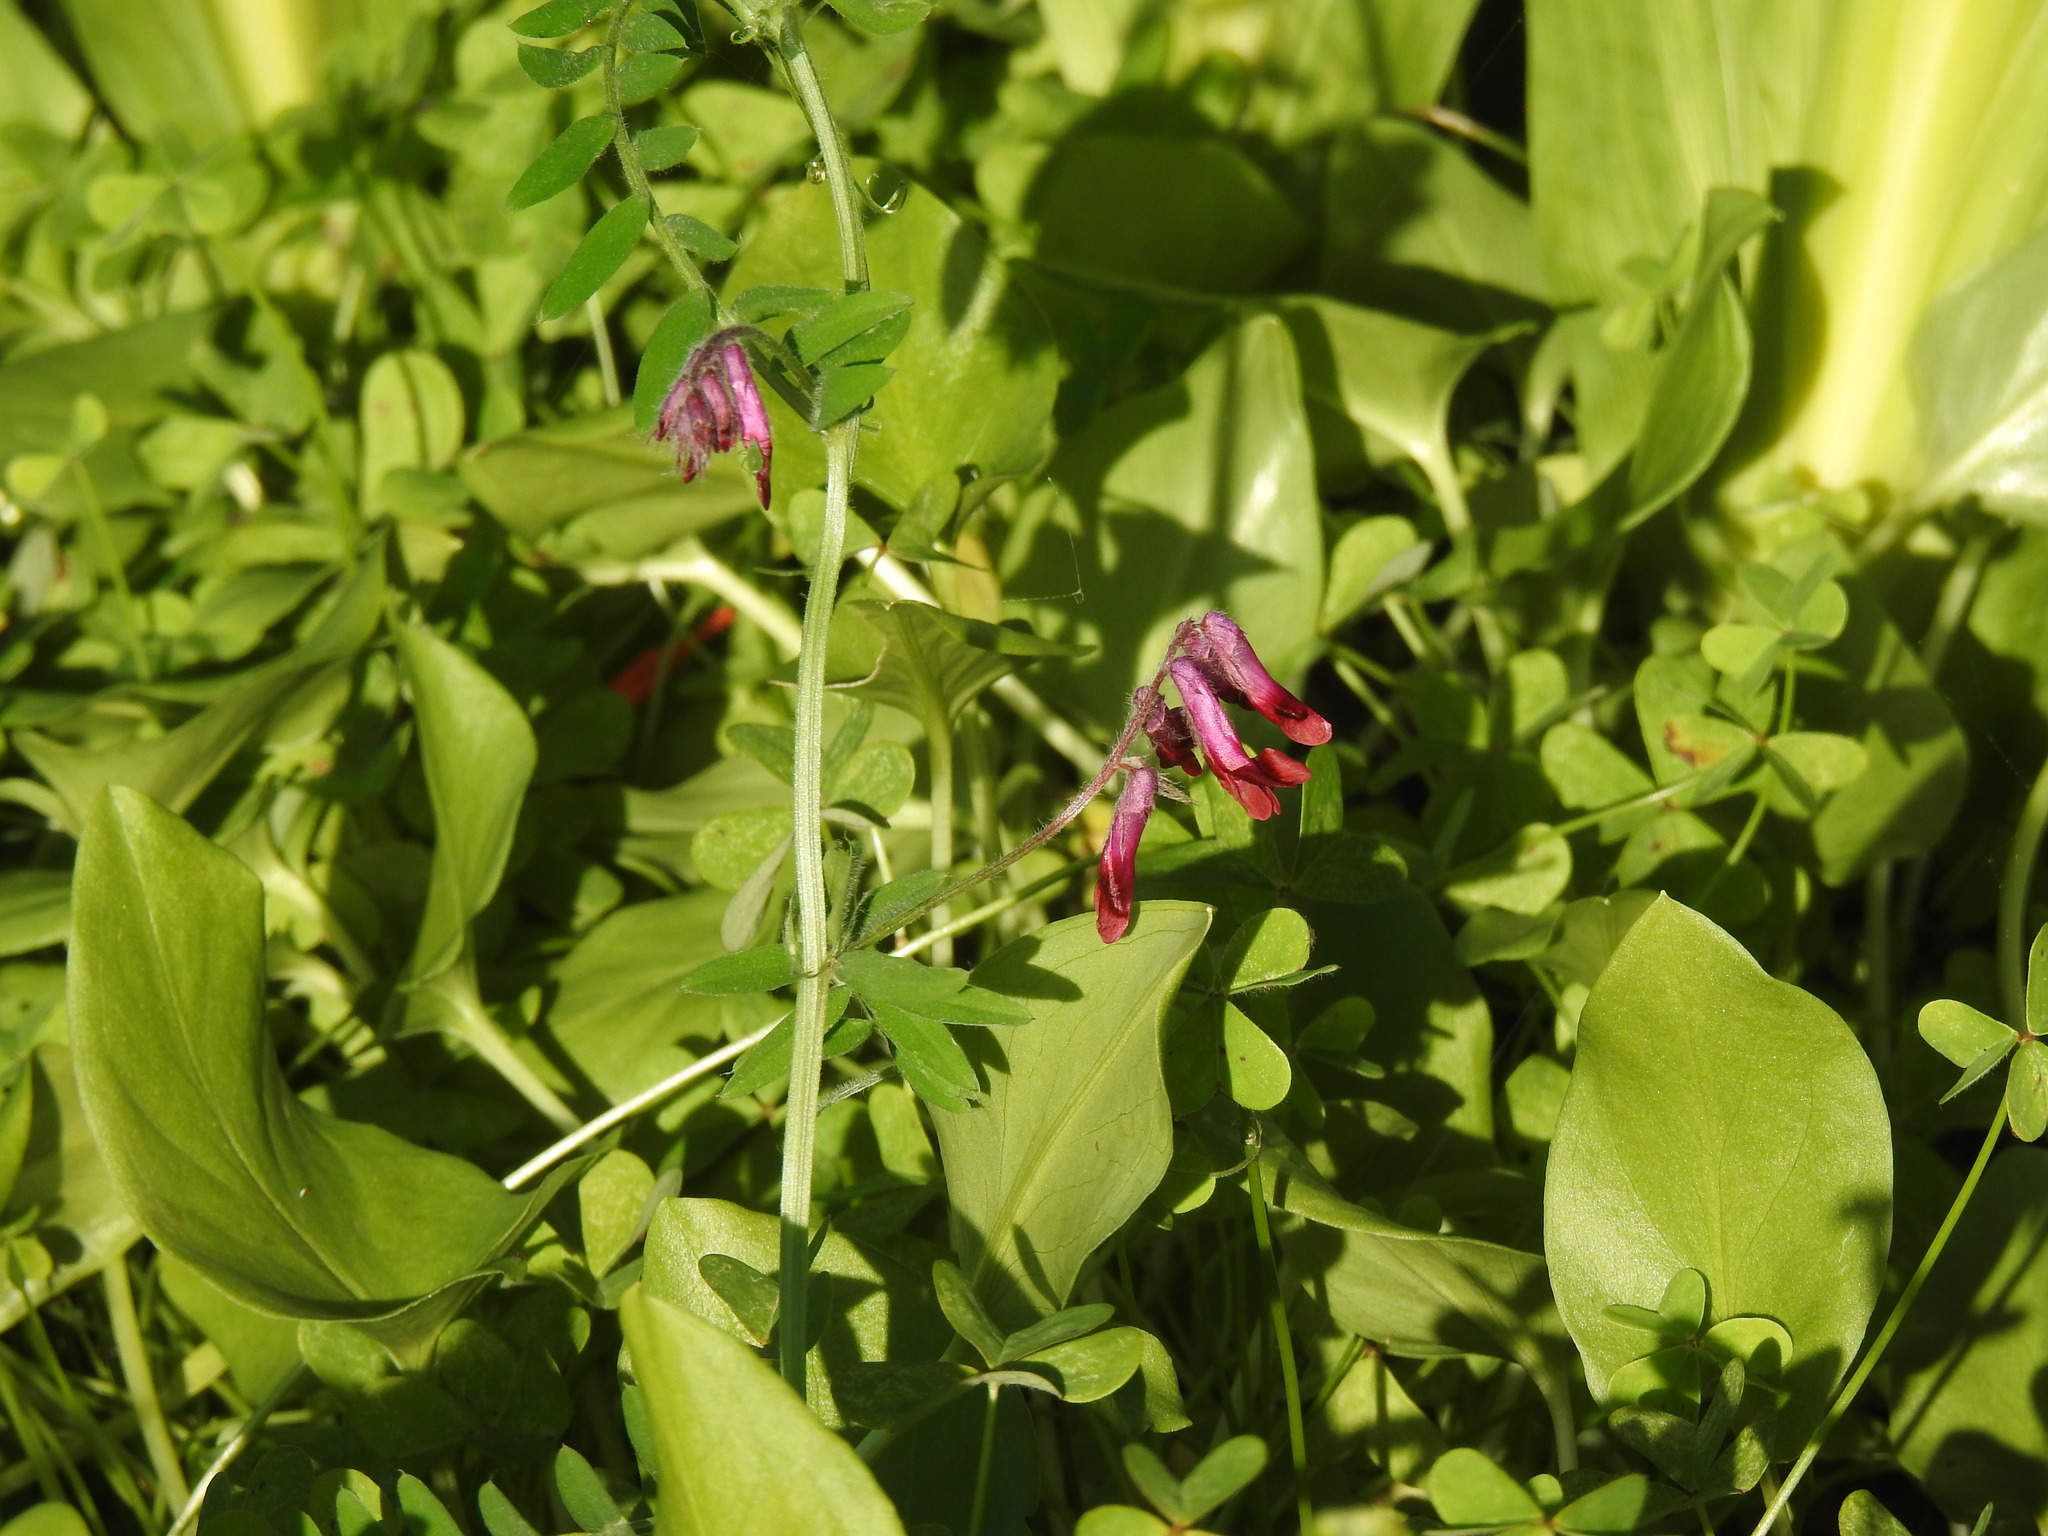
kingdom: Plantae
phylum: Tracheophyta
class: Magnoliopsida
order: Fabales
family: Fabaceae
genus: Vicia
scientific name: Vicia benghalensis
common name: Purple vetch
